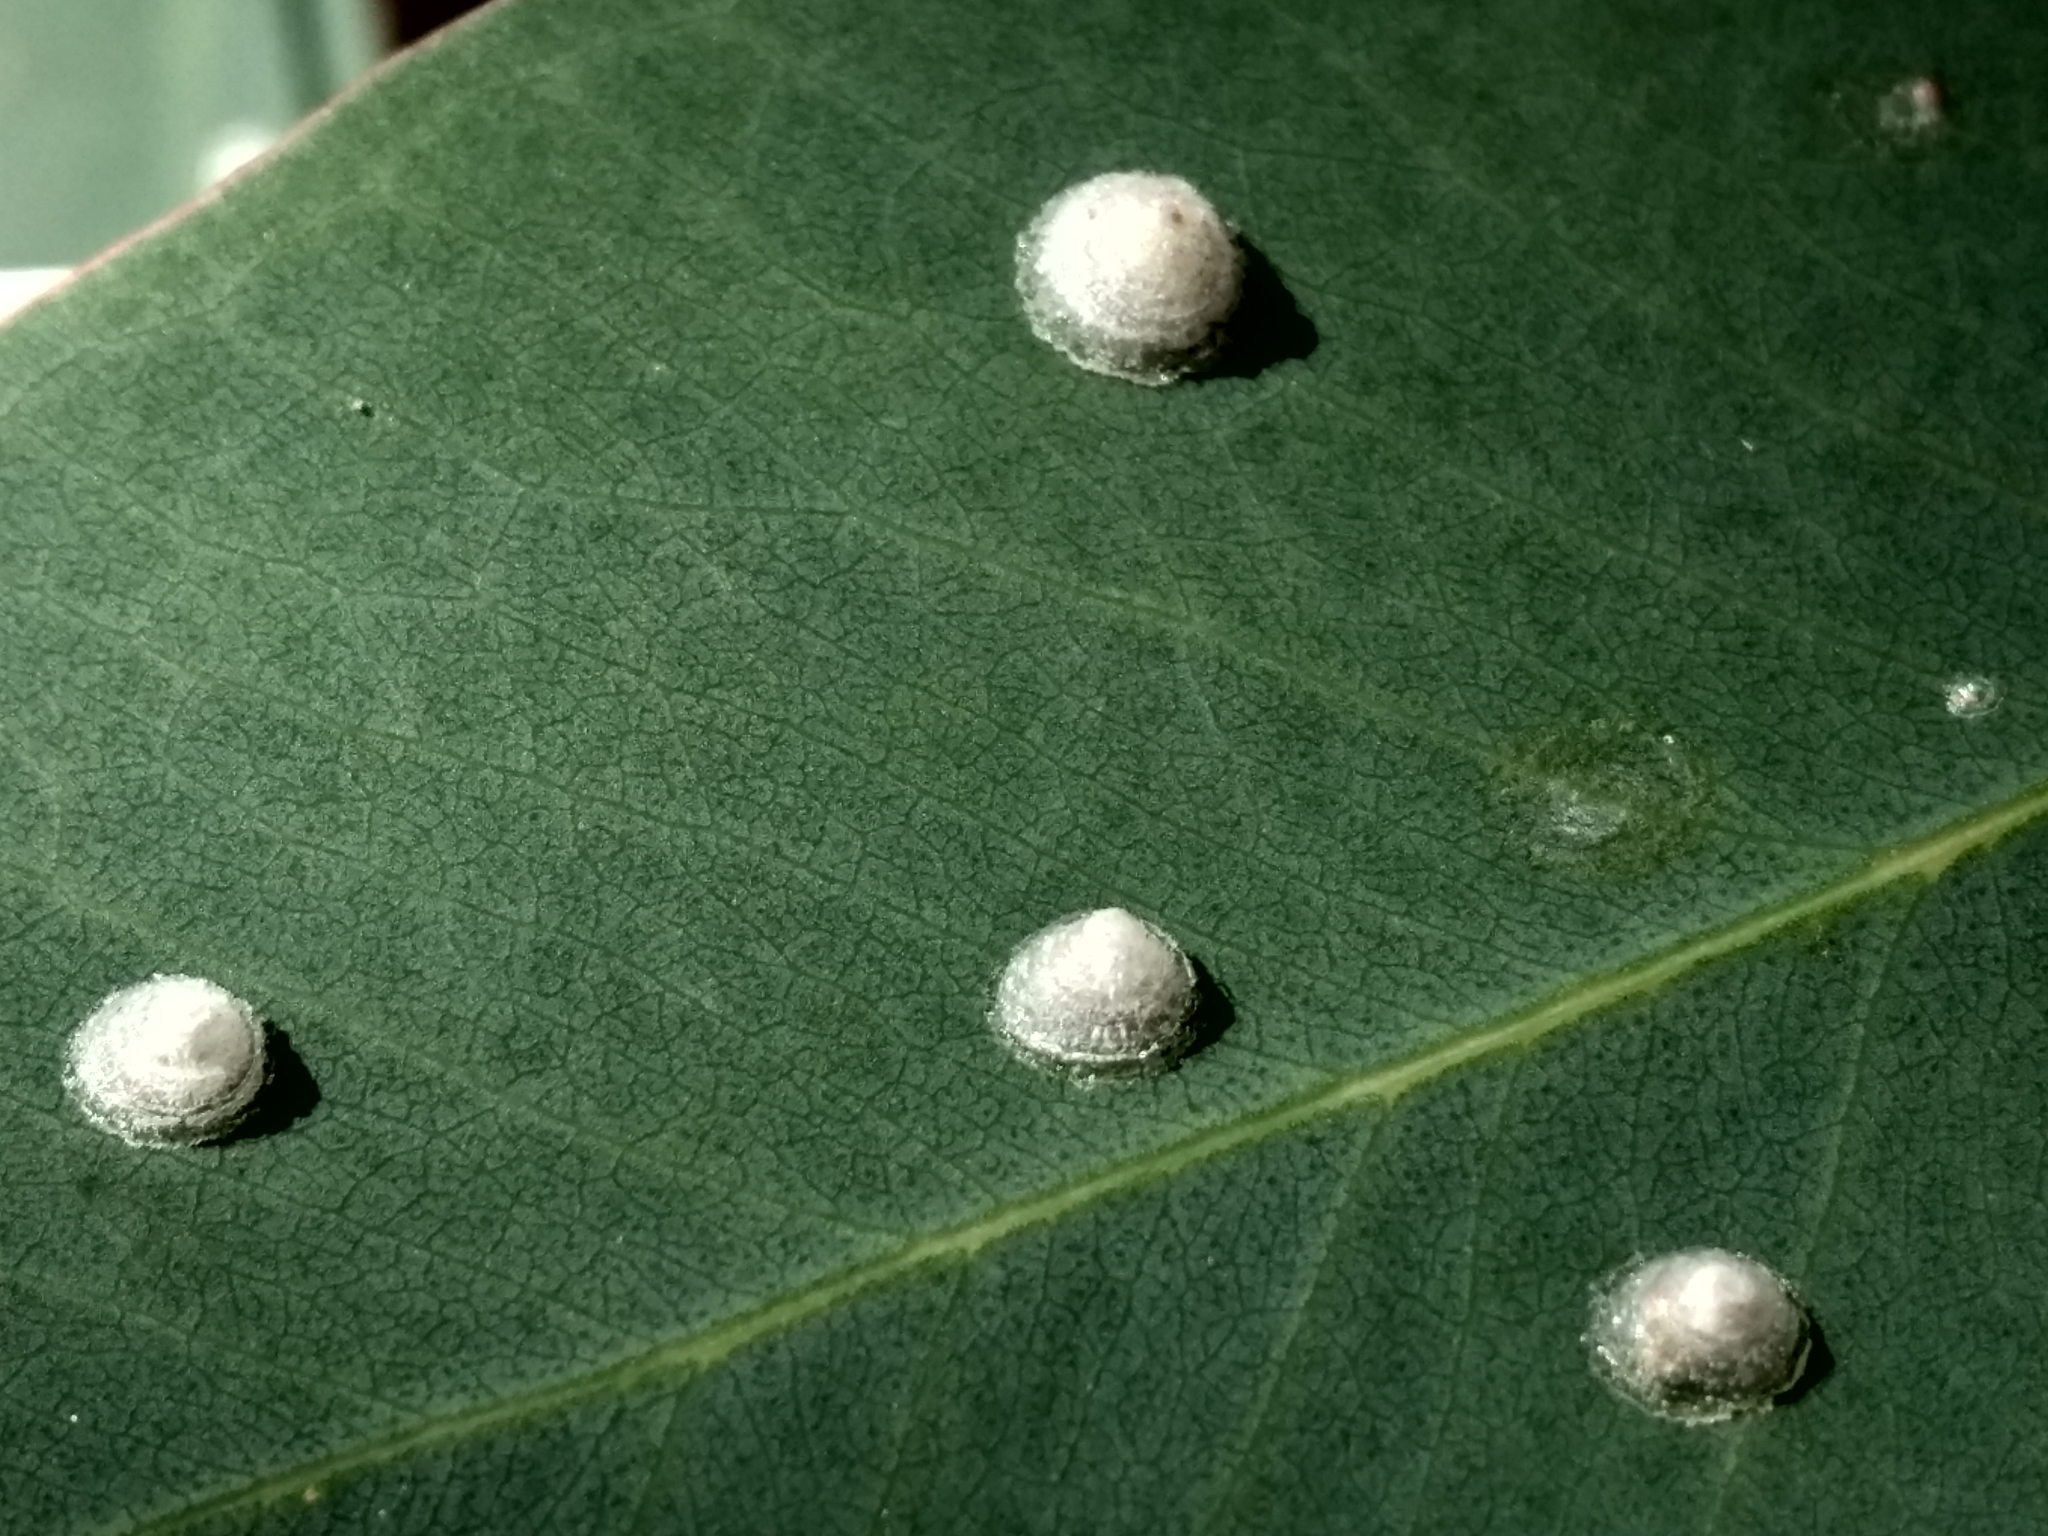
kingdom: Animalia
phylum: Arthropoda
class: Insecta
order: Hemiptera
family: Aphalaridae
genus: Glycaspis
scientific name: Glycaspis brimblecombei
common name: Red gum lerp psyllid
